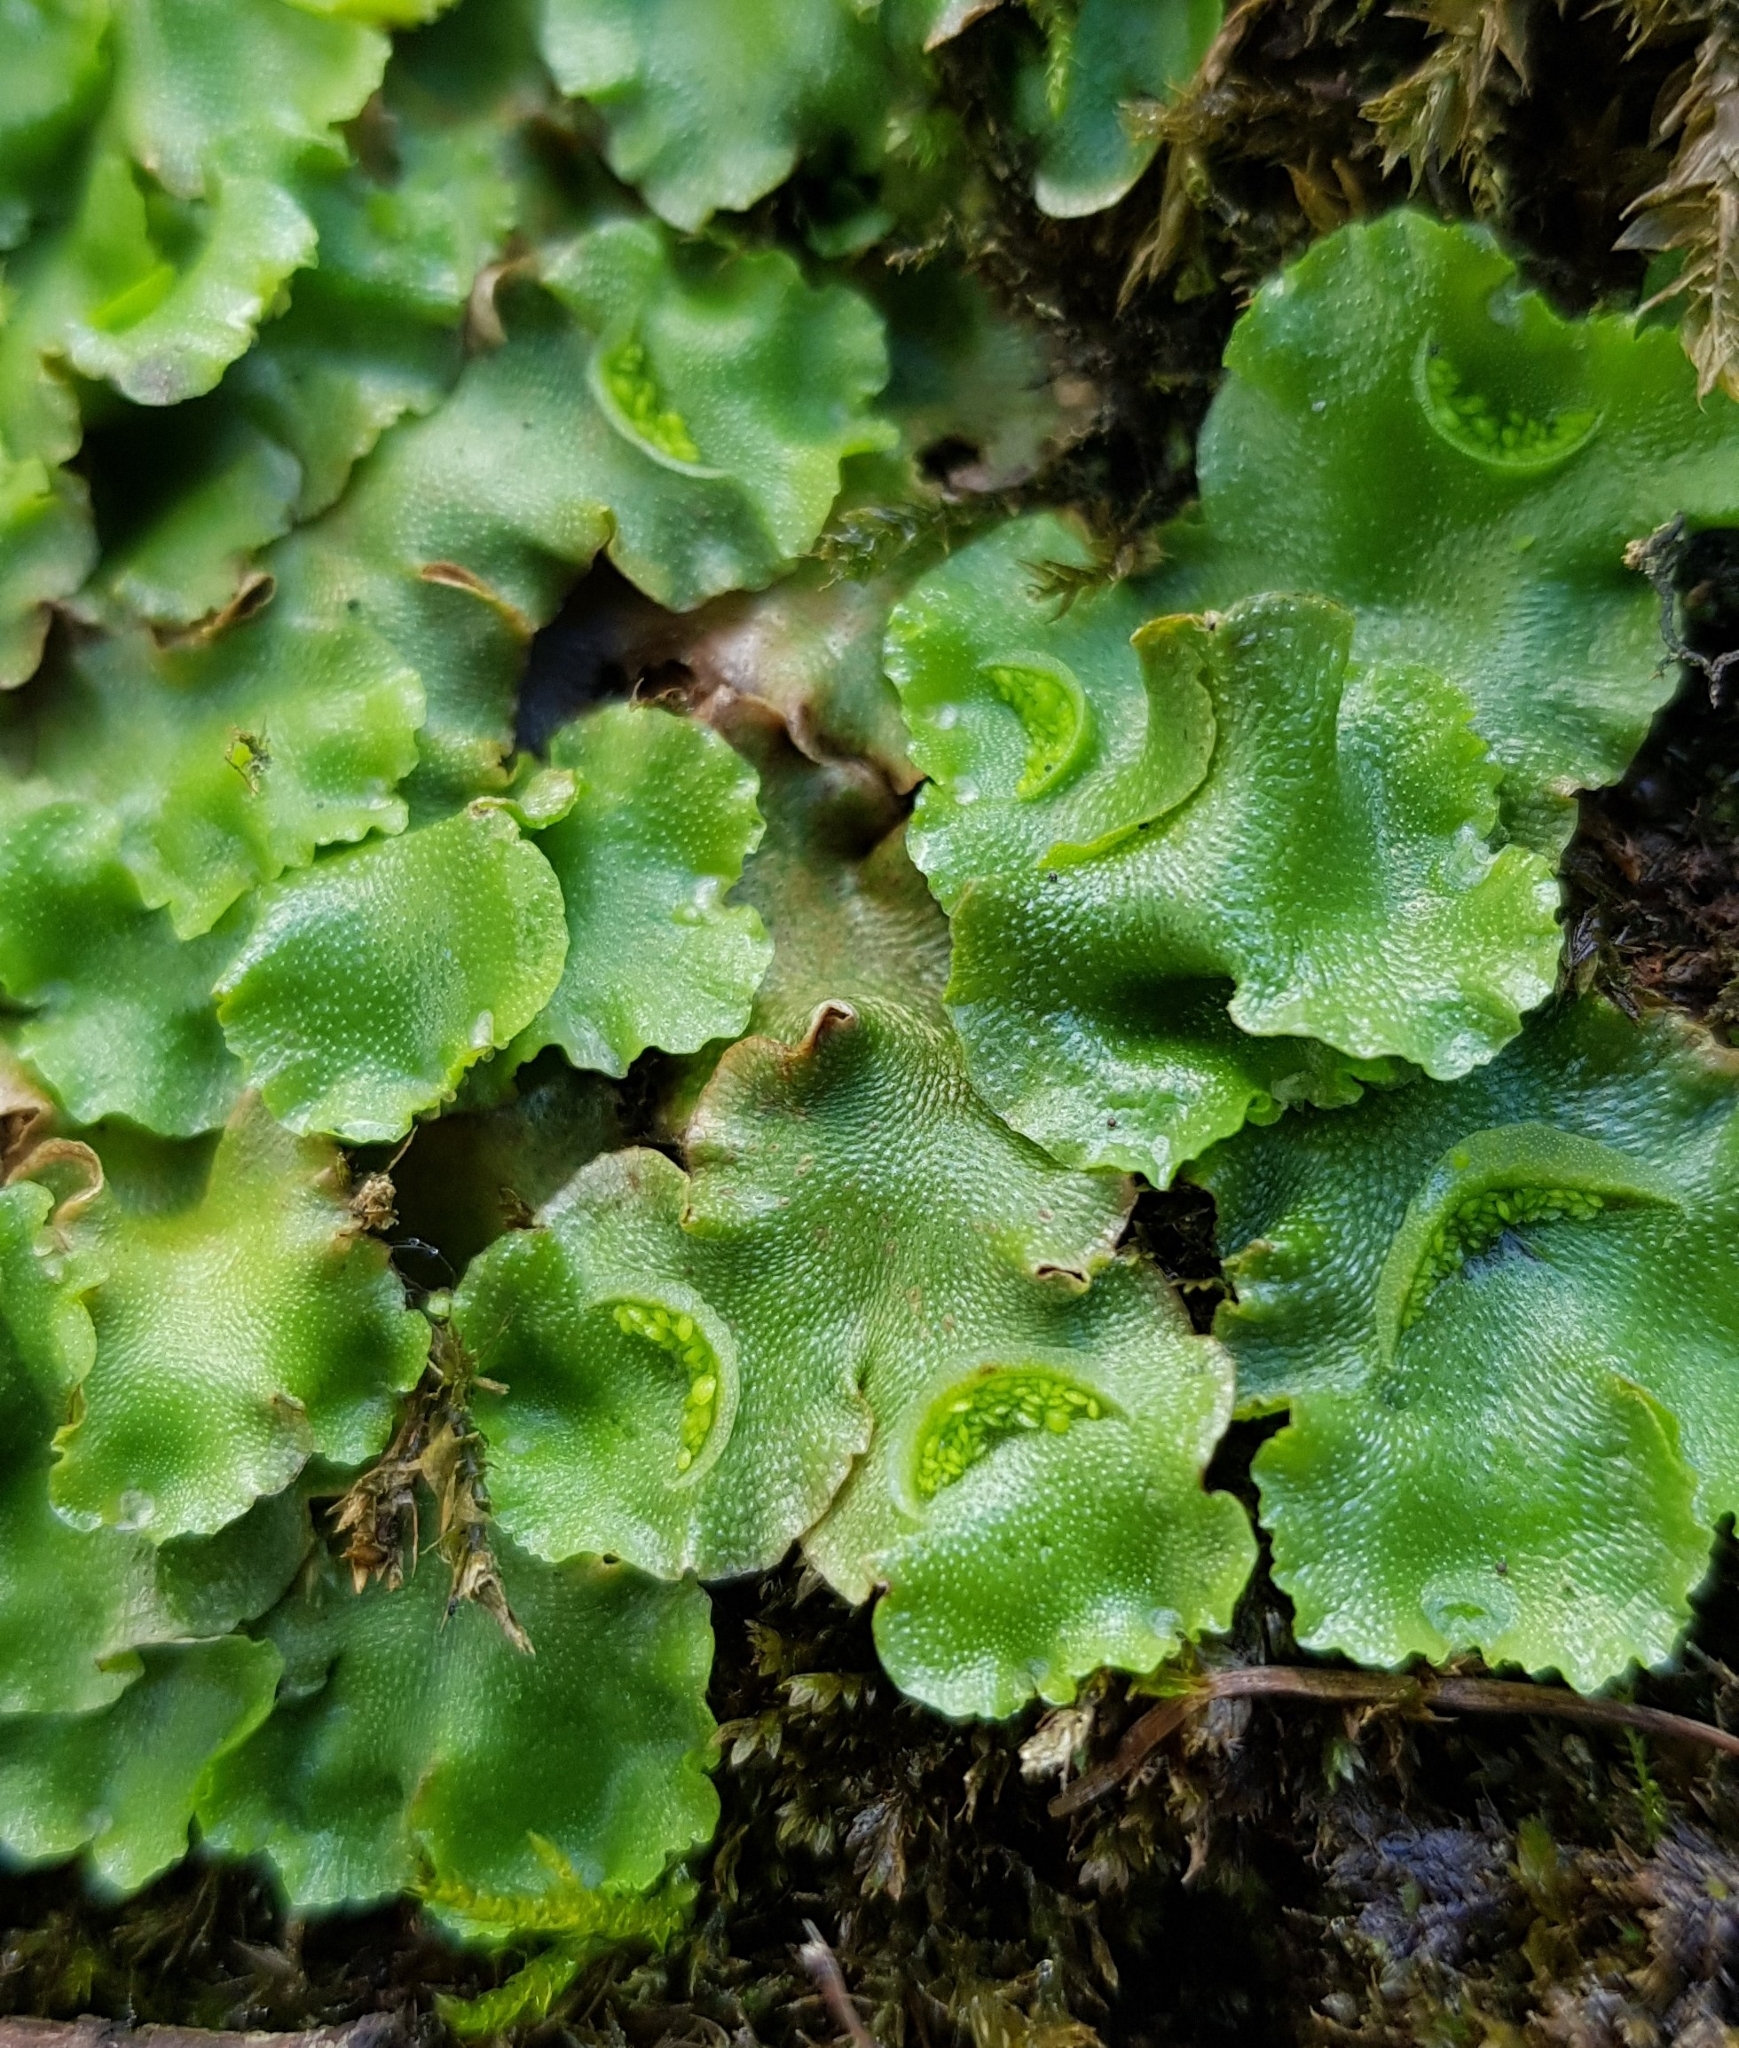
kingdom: Plantae
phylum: Marchantiophyta
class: Marchantiopsida
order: Lunulariales
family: Lunulariaceae
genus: Lunularia
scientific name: Lunularia cruciata
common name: Crescent-cup liverwort
